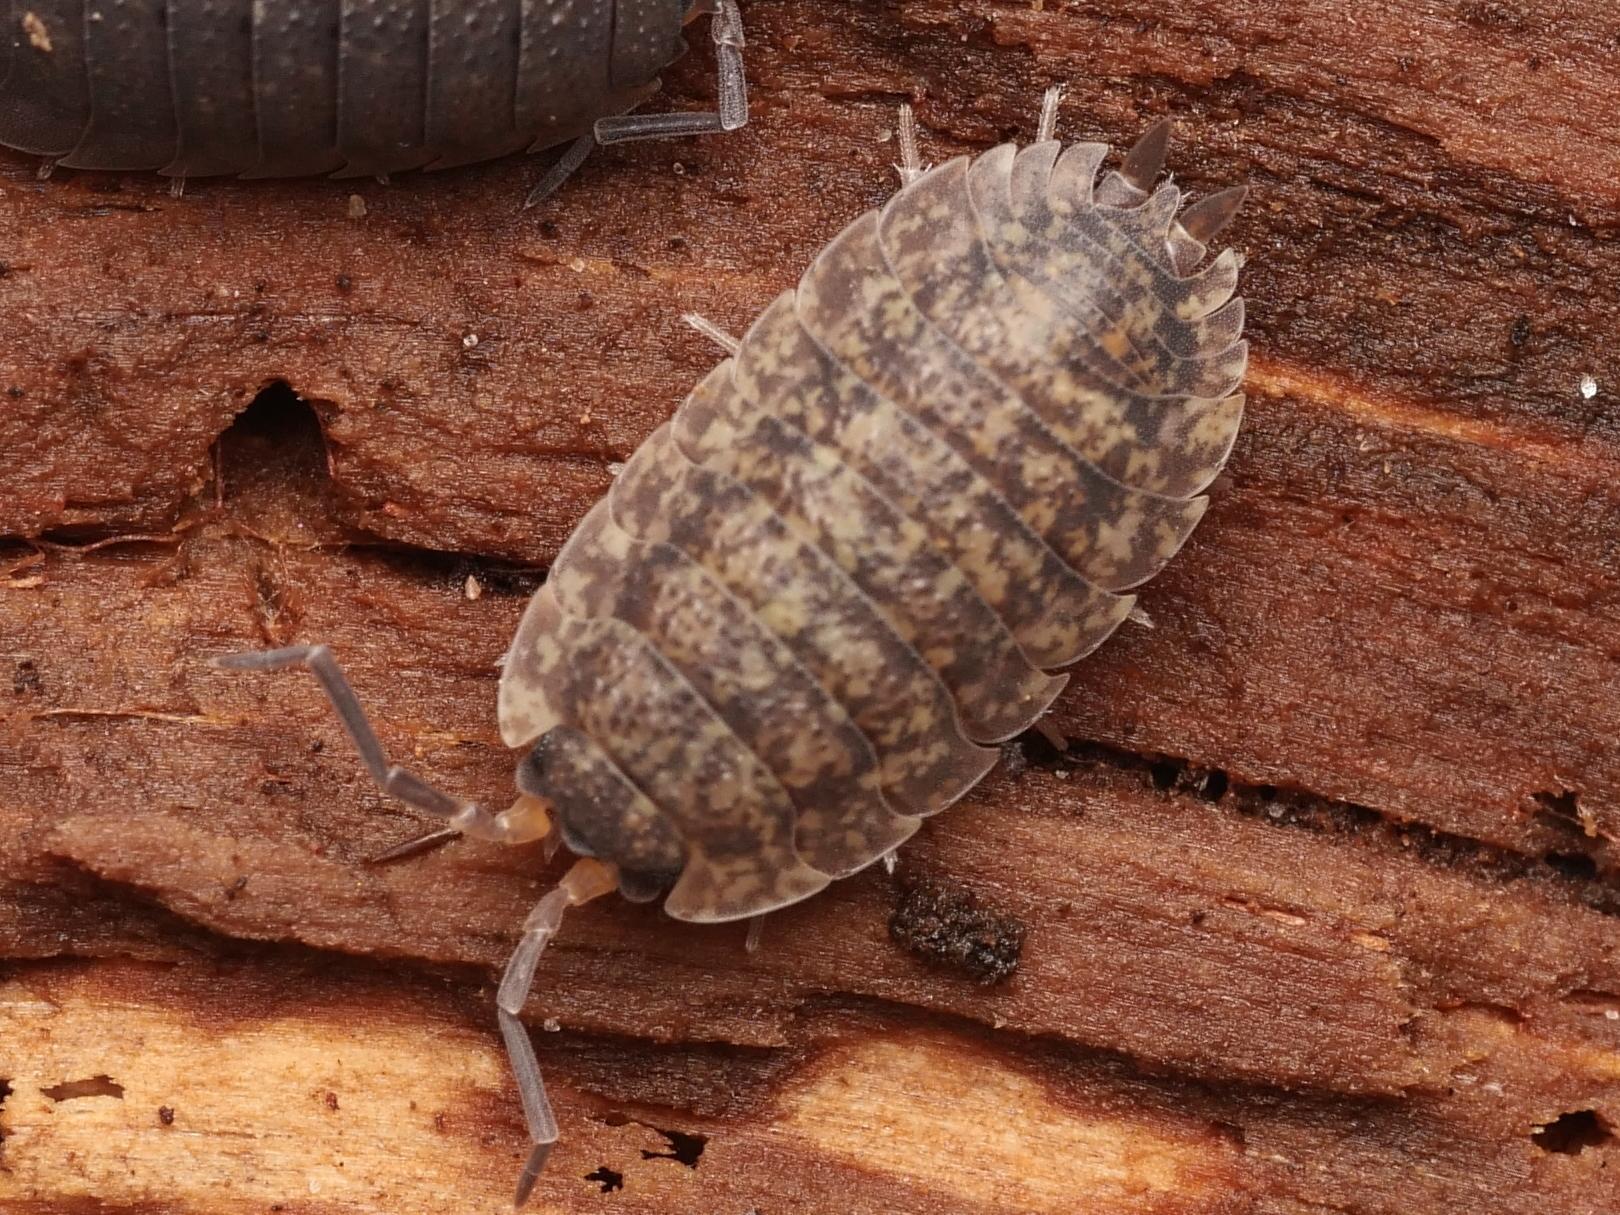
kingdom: Animalia
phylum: Arthropoda
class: Malacostraca
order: Isopoda
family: Porcellionidae
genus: Porcellio
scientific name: Porcellio scaber
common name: Common rough woodlouse
